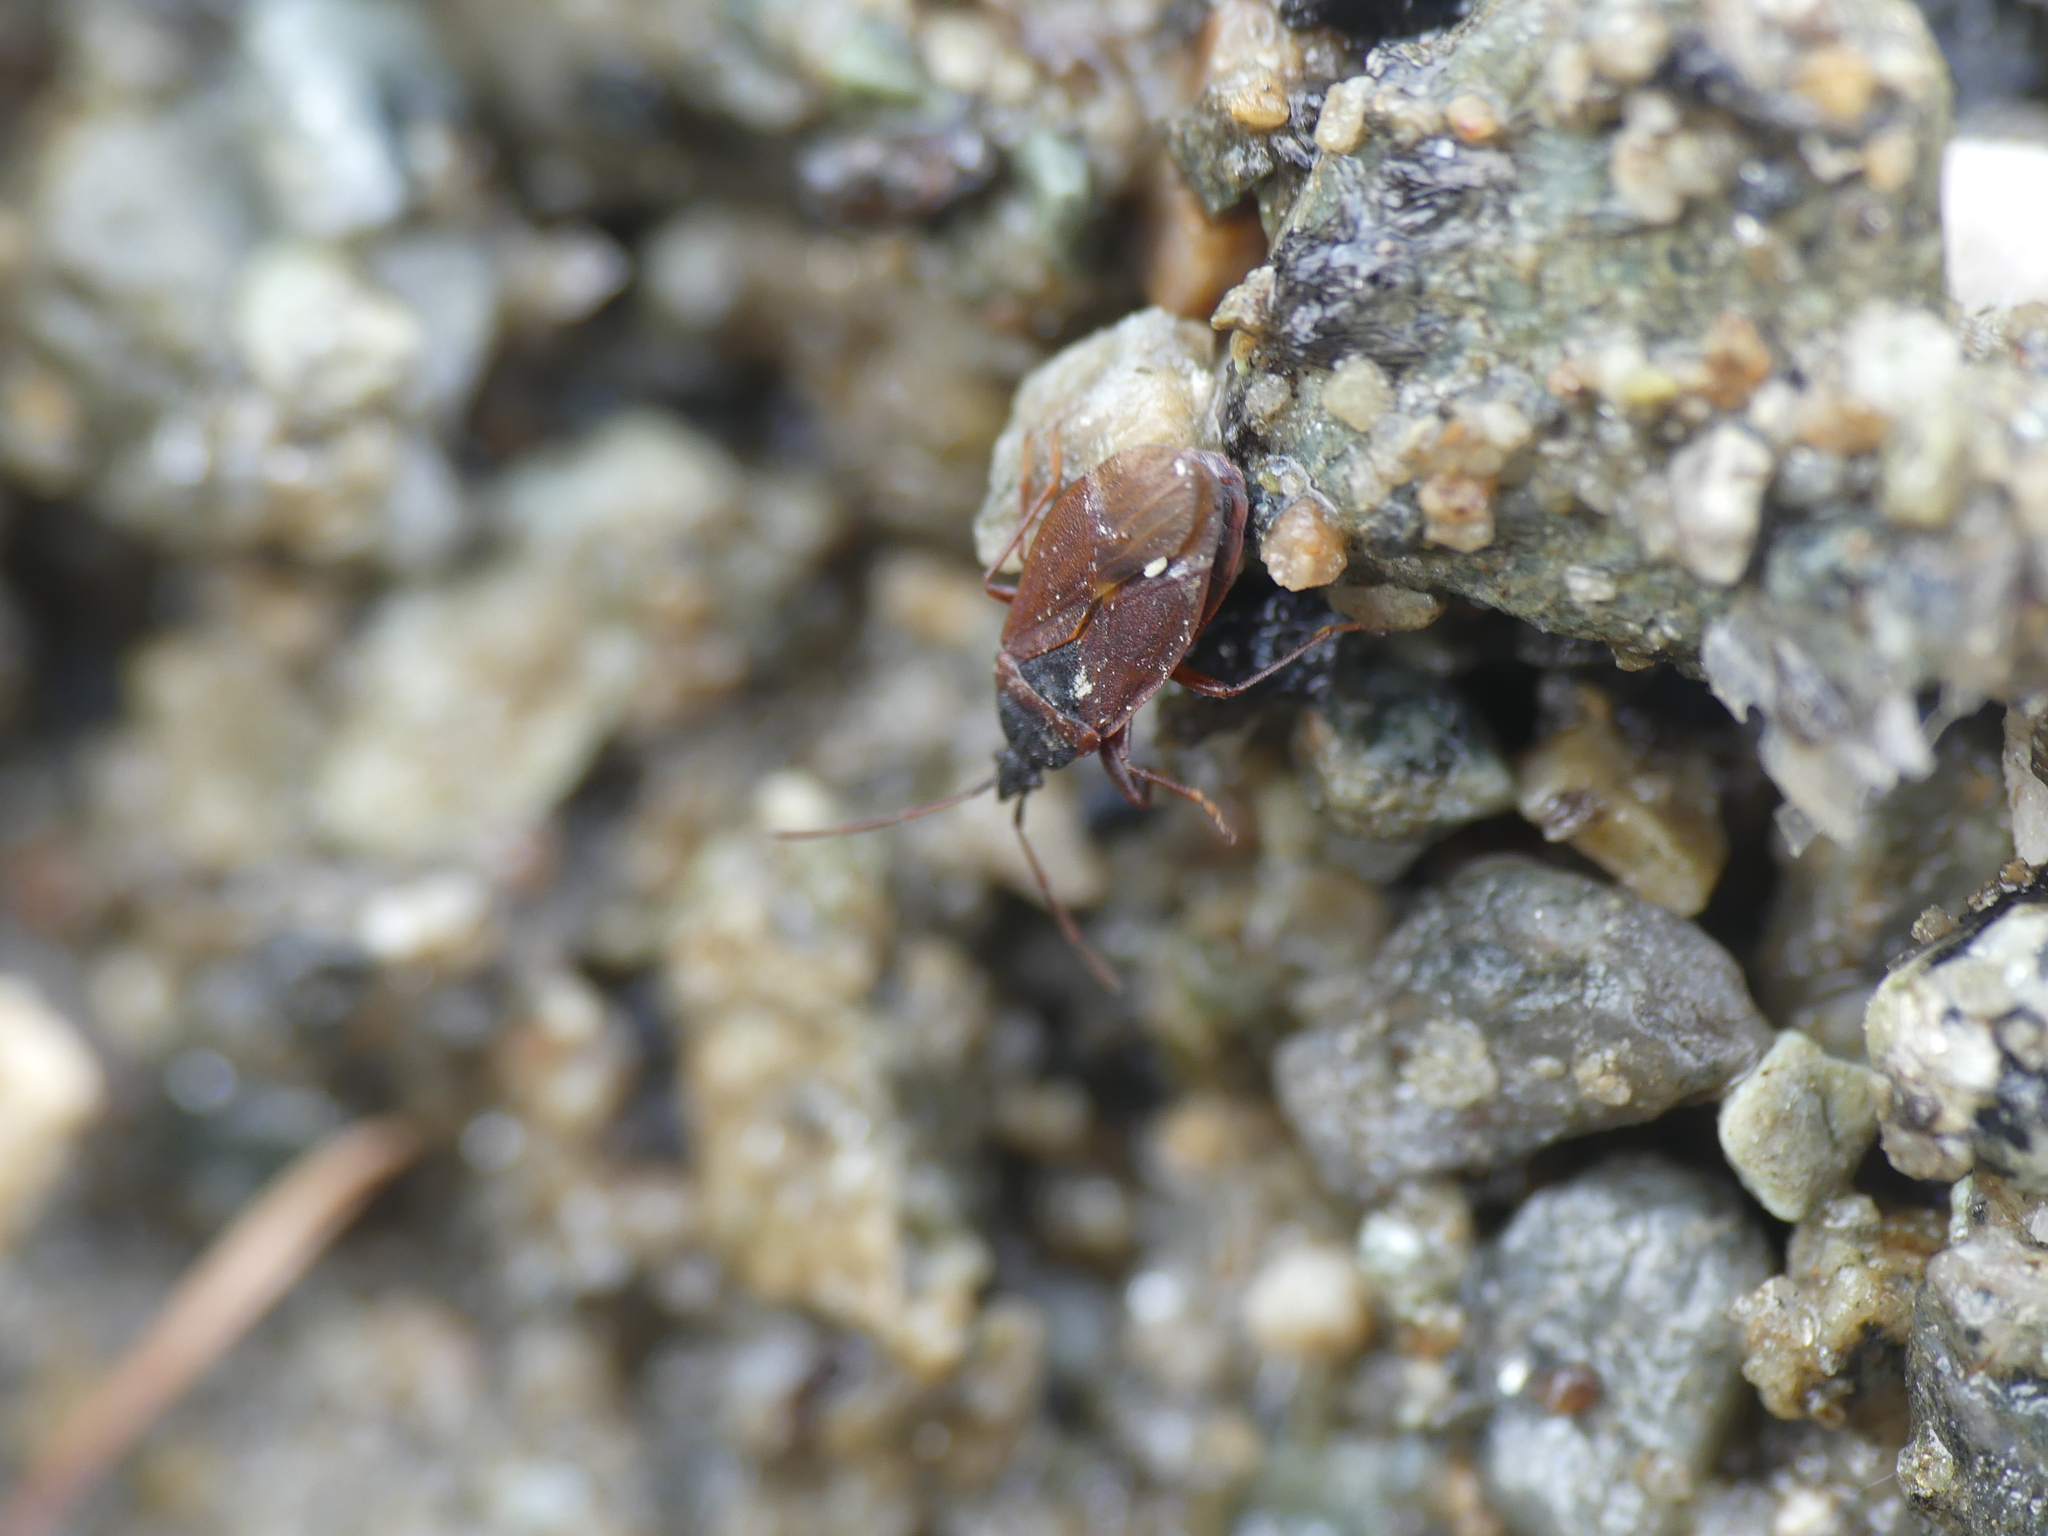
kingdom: Animalia
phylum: Arthropoda
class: Insecta
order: Hemiptera
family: Rhyparochromidae
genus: Gastrodes
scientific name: Gastrodes grossipes
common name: Pine cone bug
